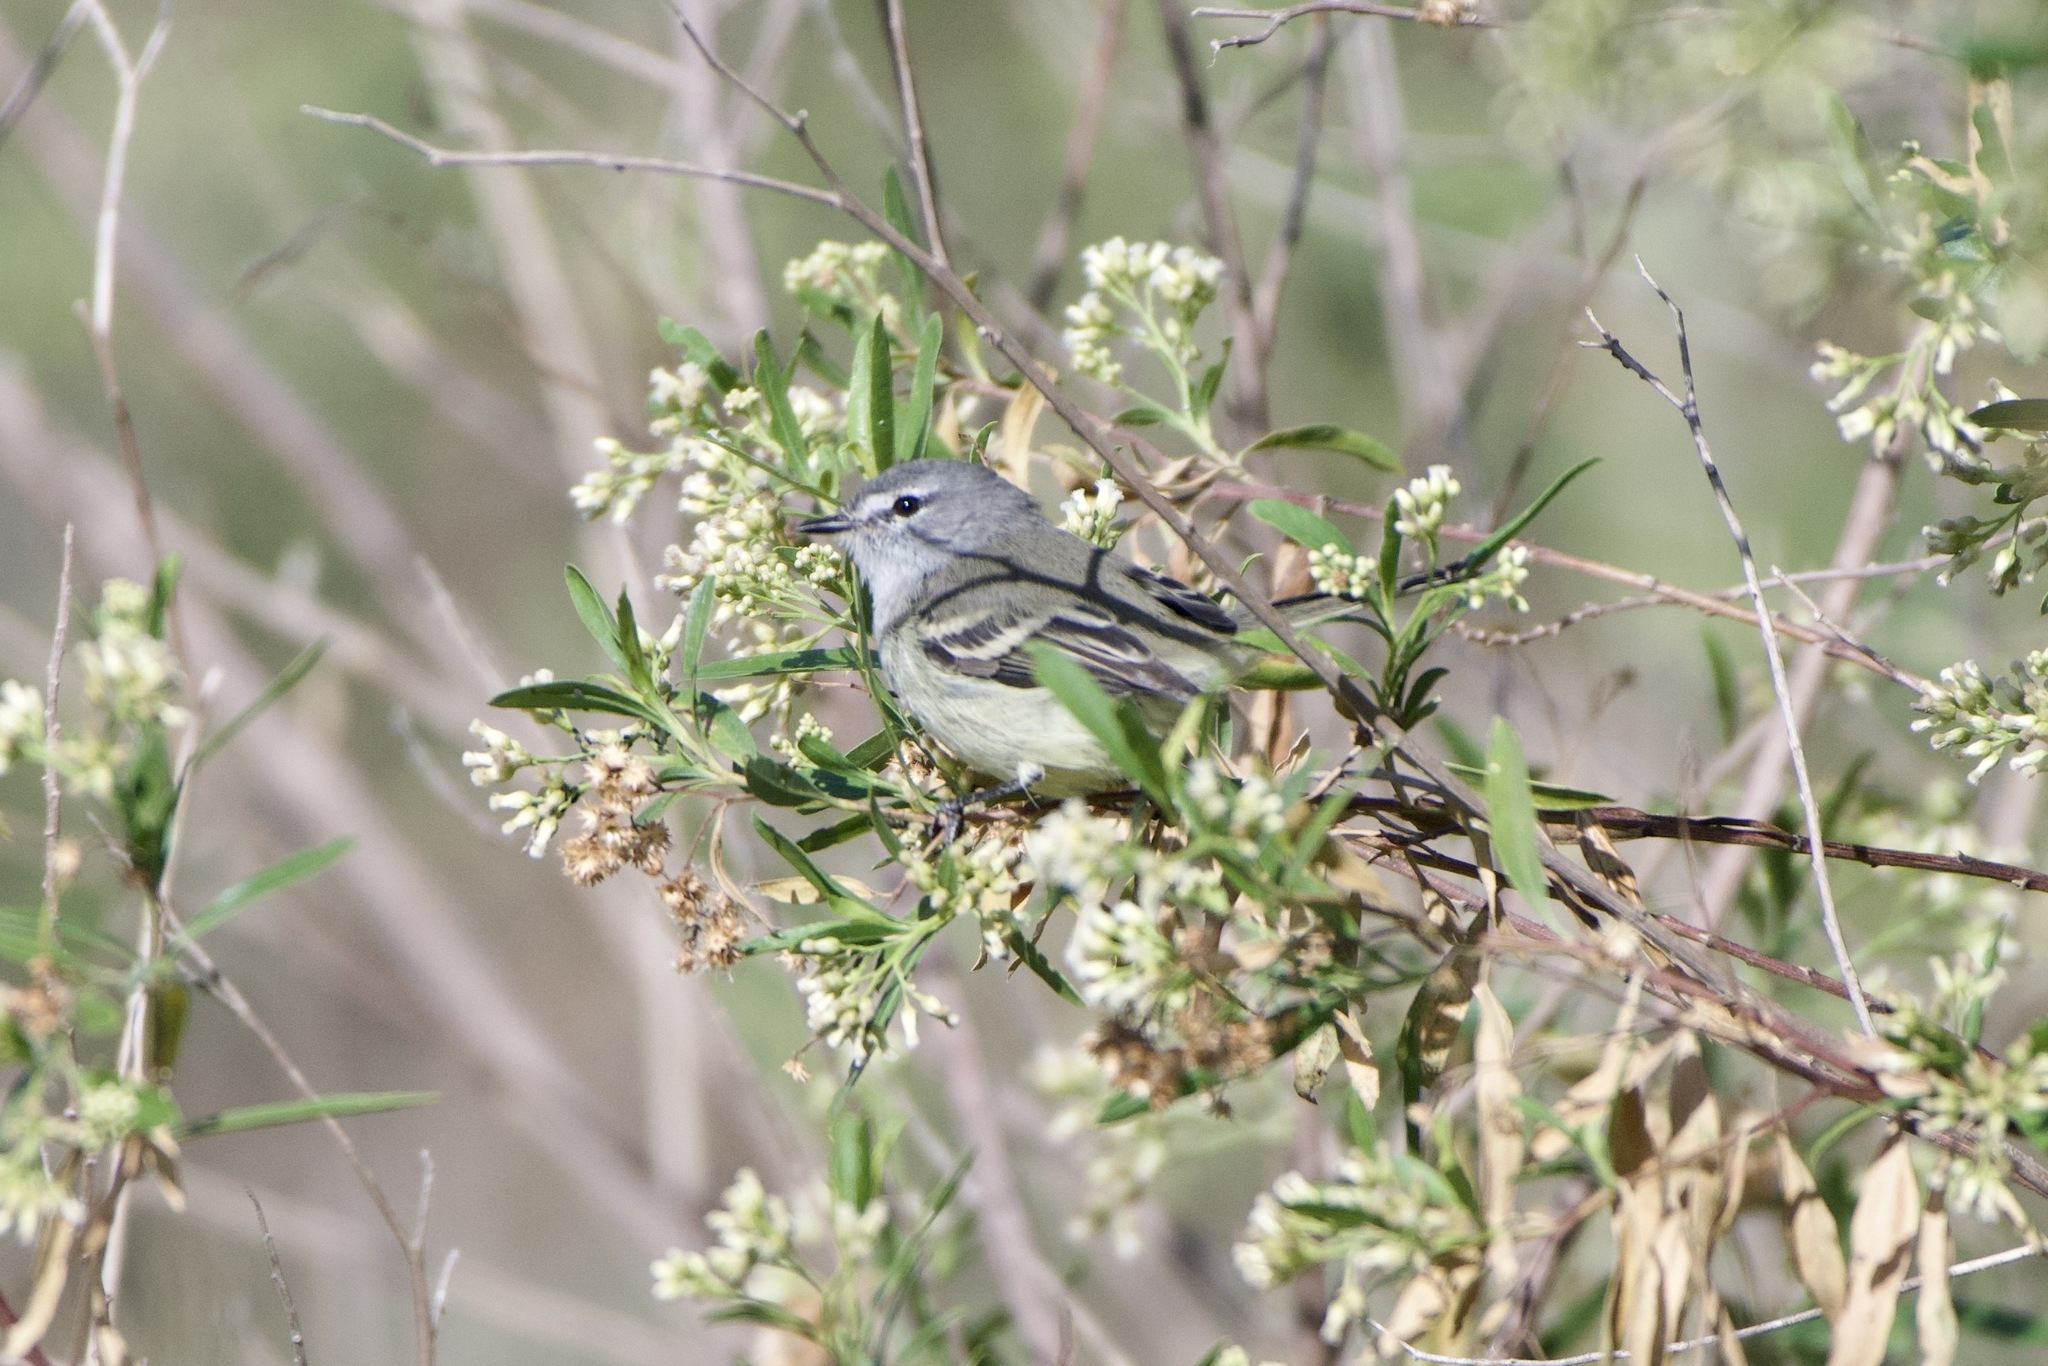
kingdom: Animalia
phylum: Chordata
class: Aves
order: Passeriformes
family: Tyrannidae
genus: Serpophaga
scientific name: Serpophaga
